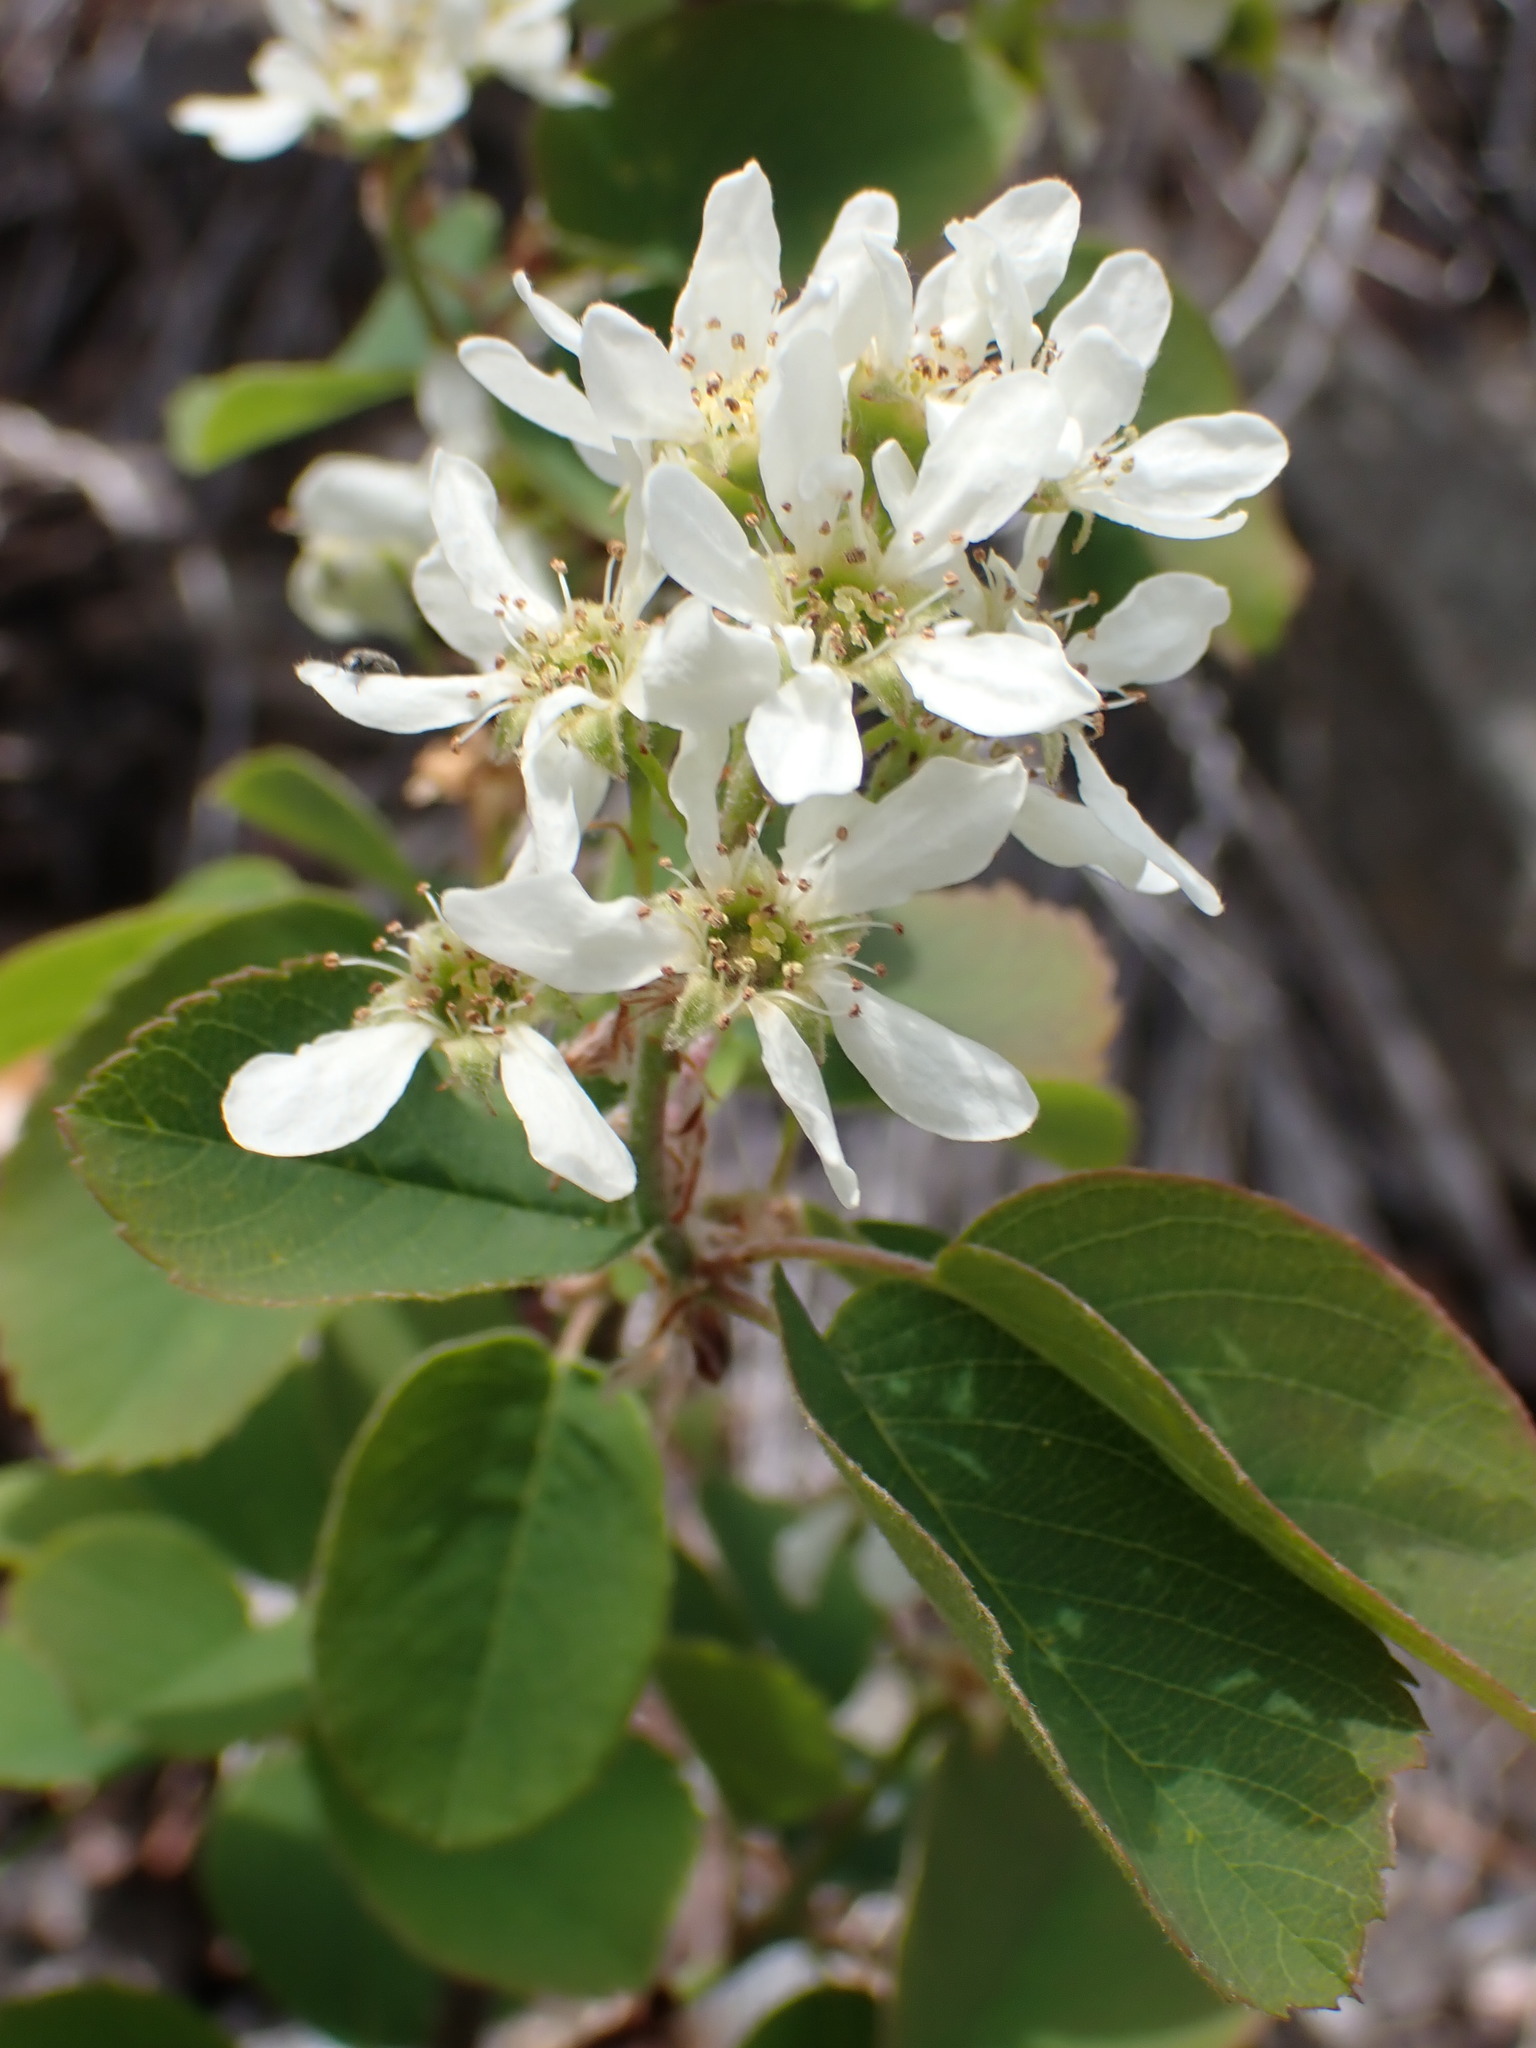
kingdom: Plantae
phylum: Tracheophyta
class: Magnoliopsida
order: Rosales
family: Rosaceae
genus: Amelanchier
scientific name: Amelanchier alnifolia
